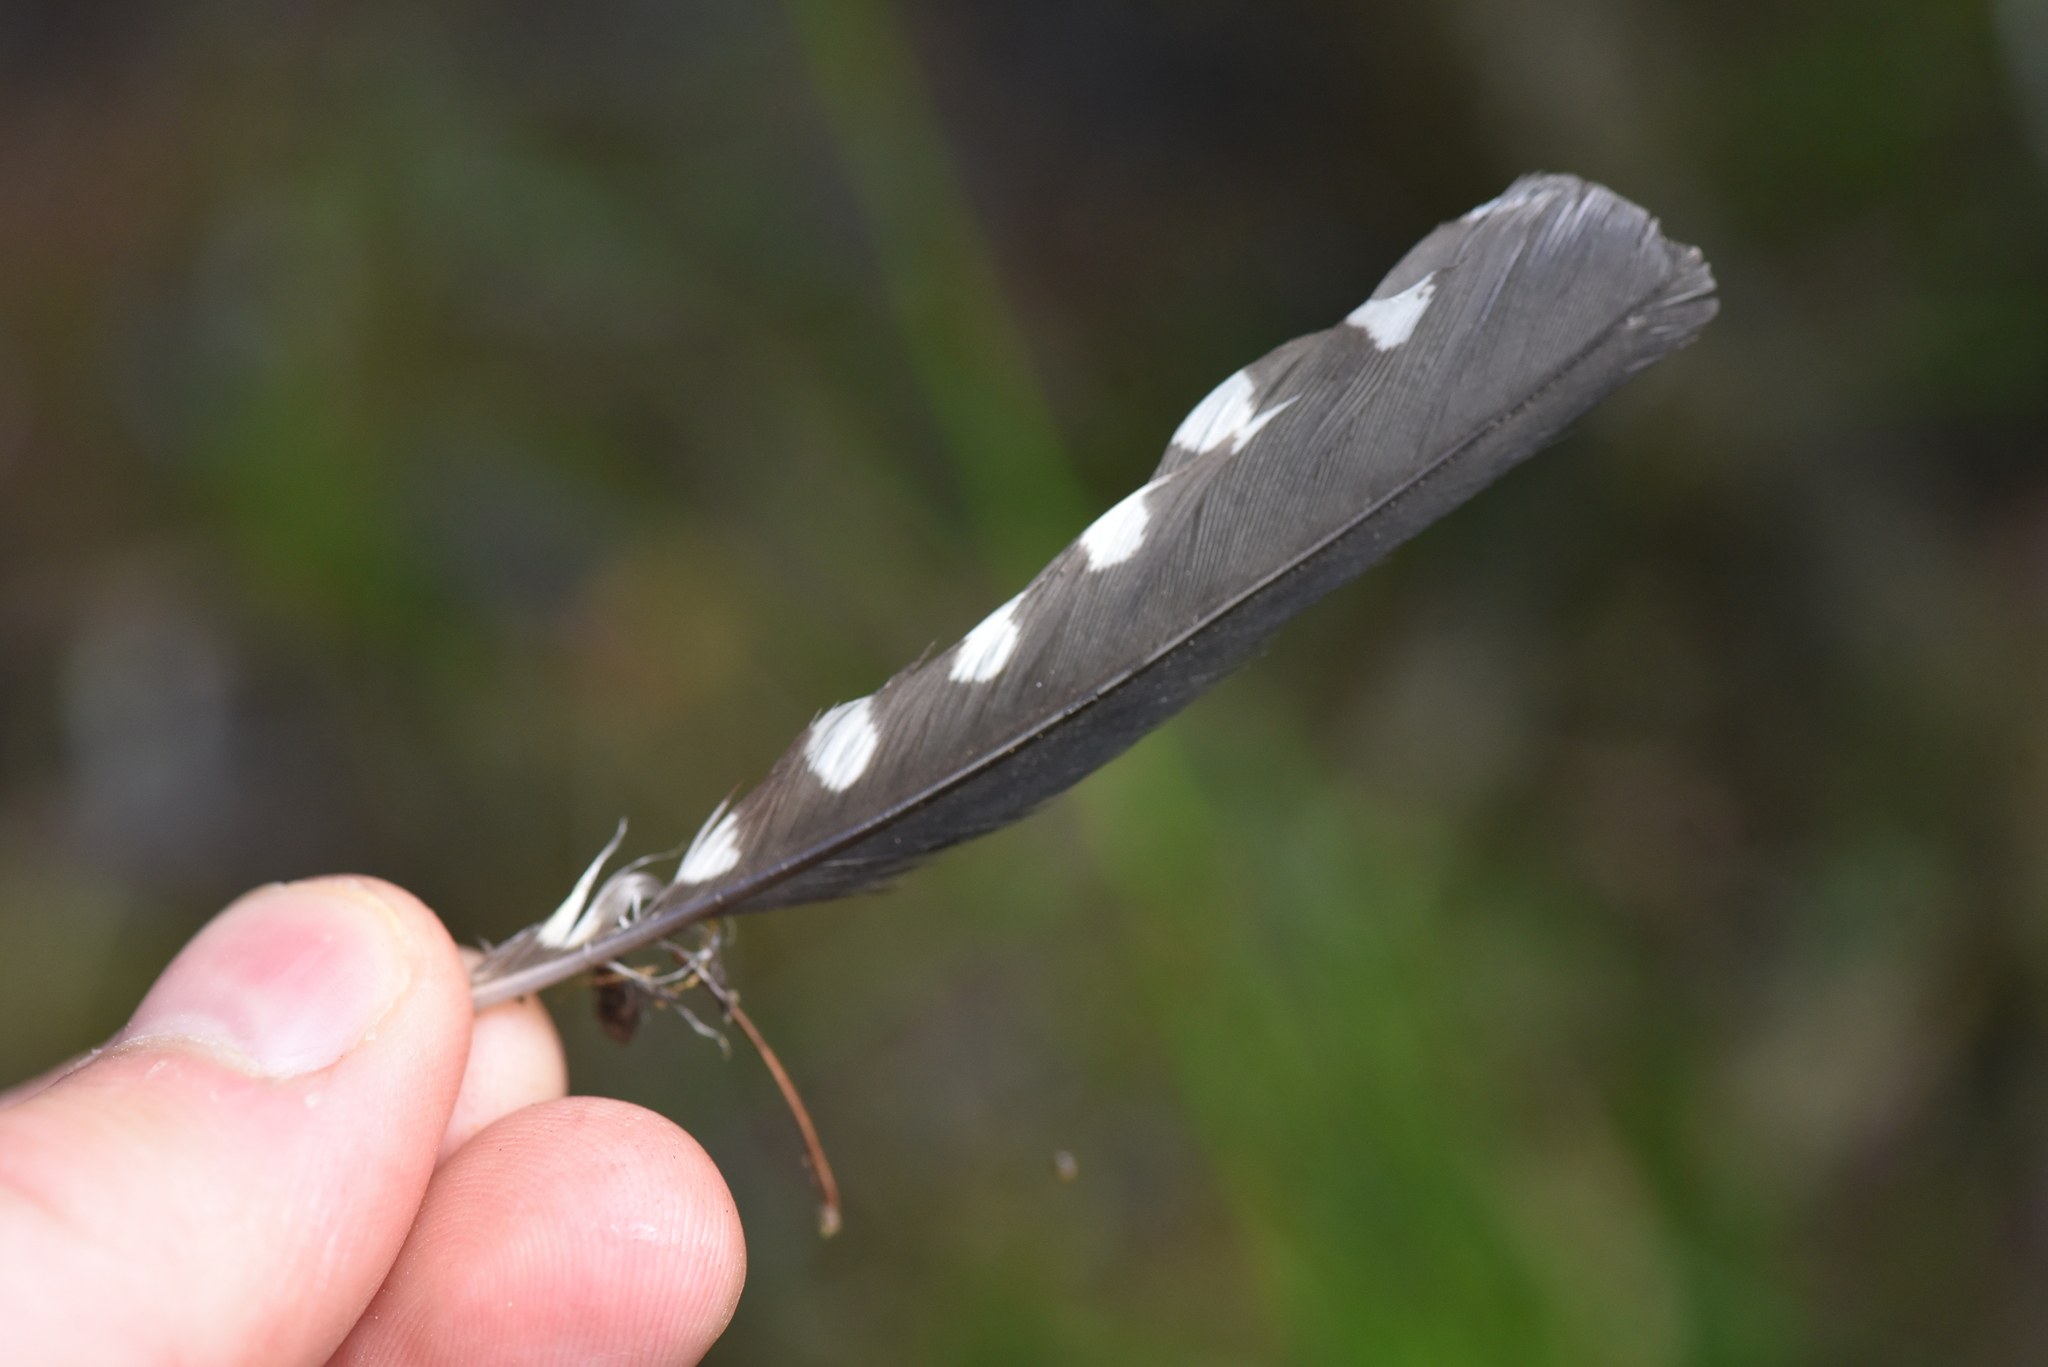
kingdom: Animalia
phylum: Chordata
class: Aves
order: Piciformes
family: Picidae
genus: Sphyrapicus
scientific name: Sphyrapicus ruber
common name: Red-breasted sapsucker
